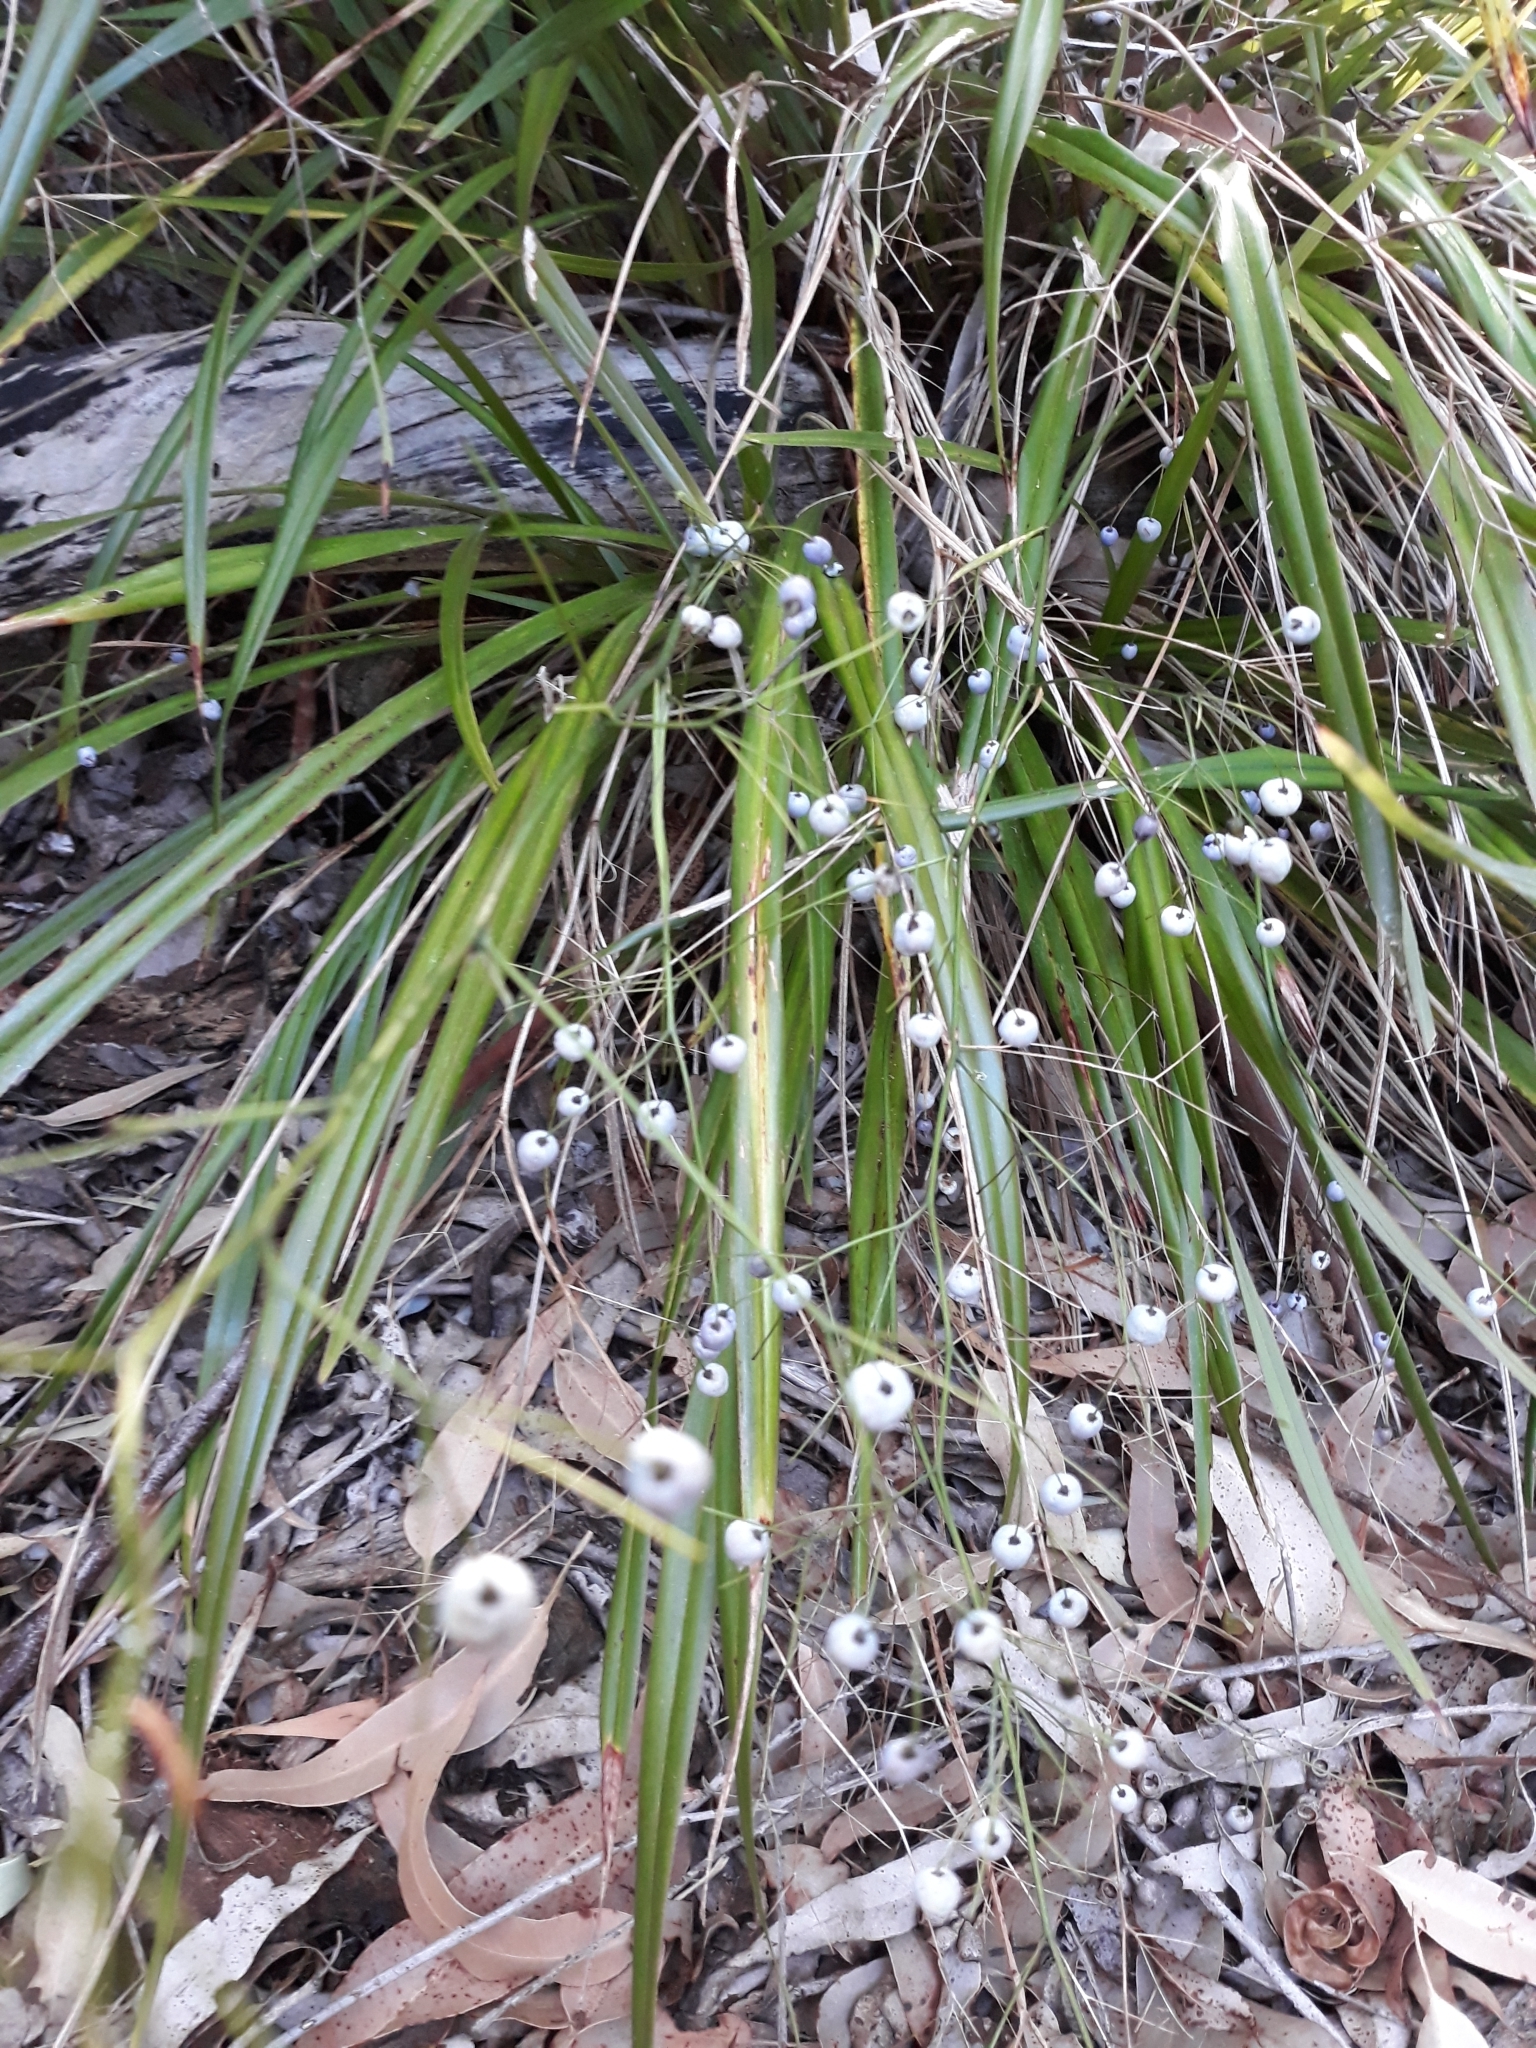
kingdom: Plantae
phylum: Tracheophyta
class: Liliopsida
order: Asparagales
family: Asphodelaceae
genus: Dianella
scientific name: Dianella nigra
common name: New zealand-blueberry
